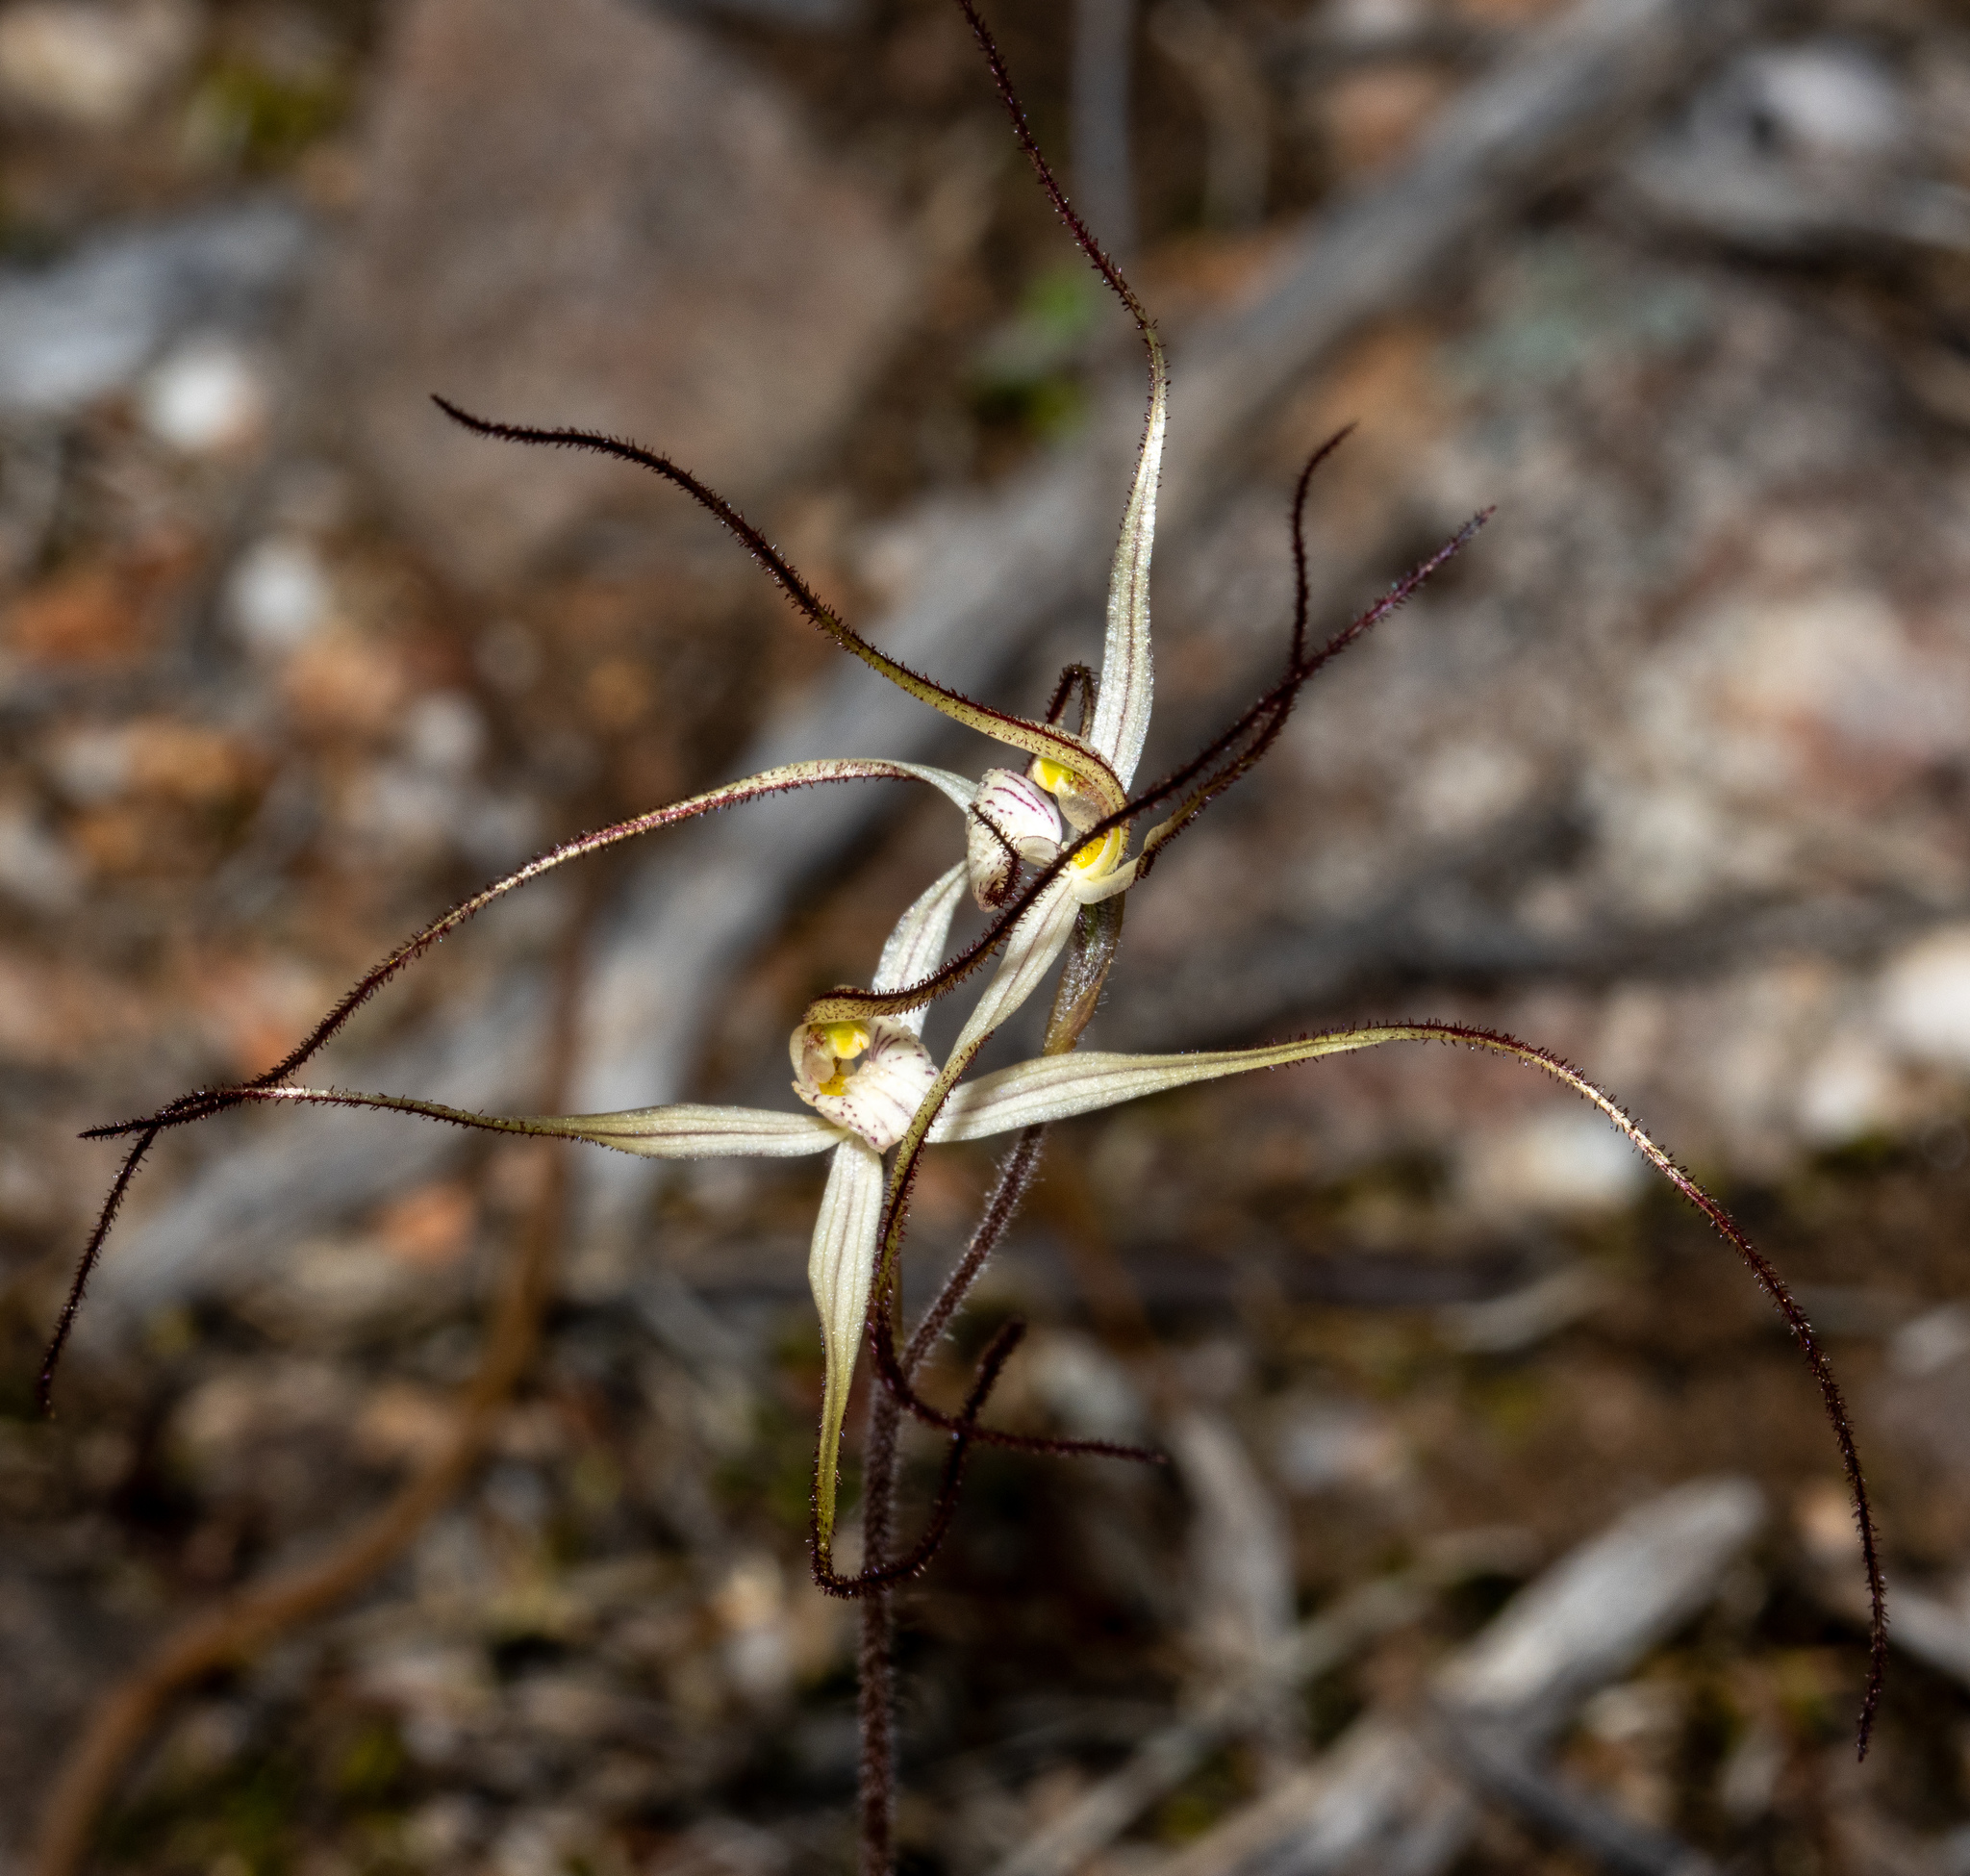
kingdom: Plantae
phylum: Tracheophyta
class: Liliopsida
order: Asparagales
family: Orchidaceae
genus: Caladenia
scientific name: Caladenia capillata
